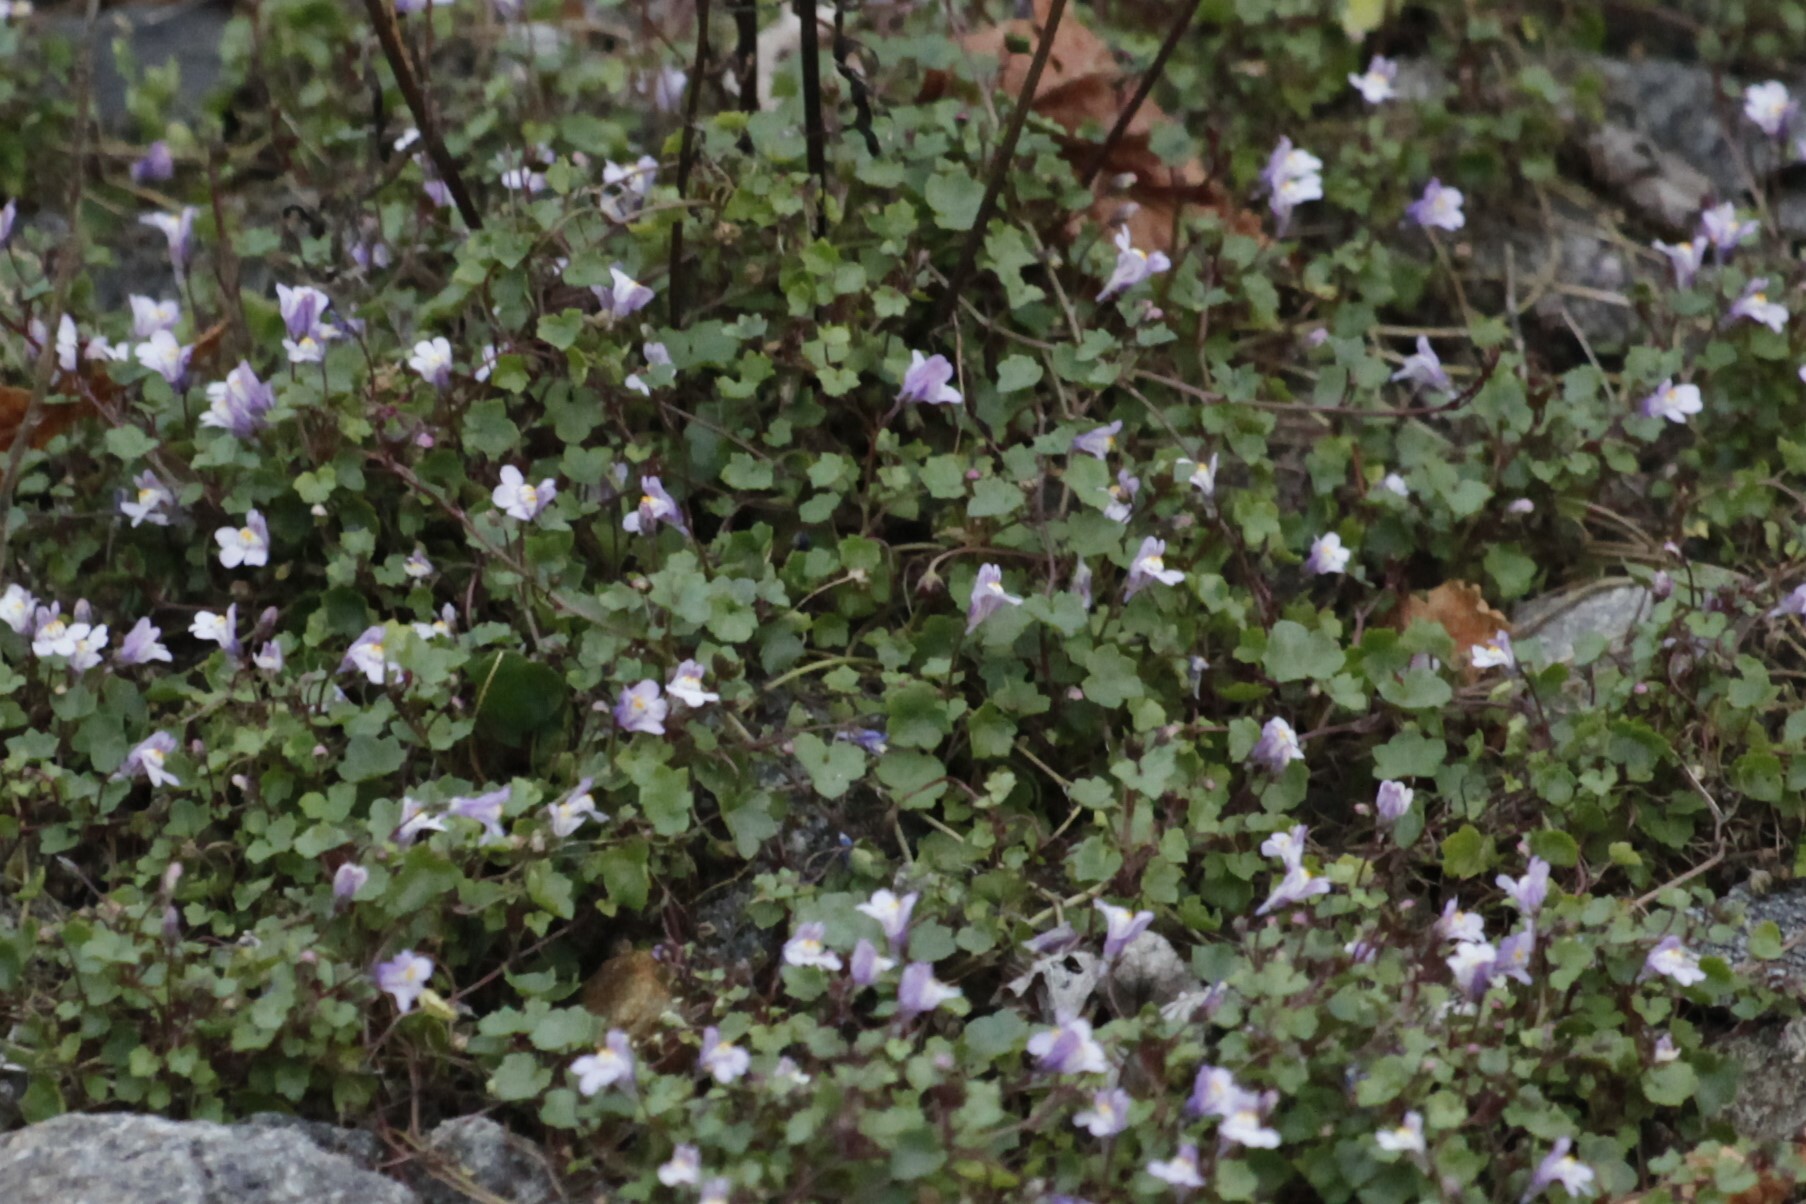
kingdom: Plantae
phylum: Tracheophyta
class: Magnoliopsida
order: Lamiales
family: Plantaginaceae
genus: Cymbalaria
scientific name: Cymbalaria muralis
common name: Ivy-leaved toadflax
